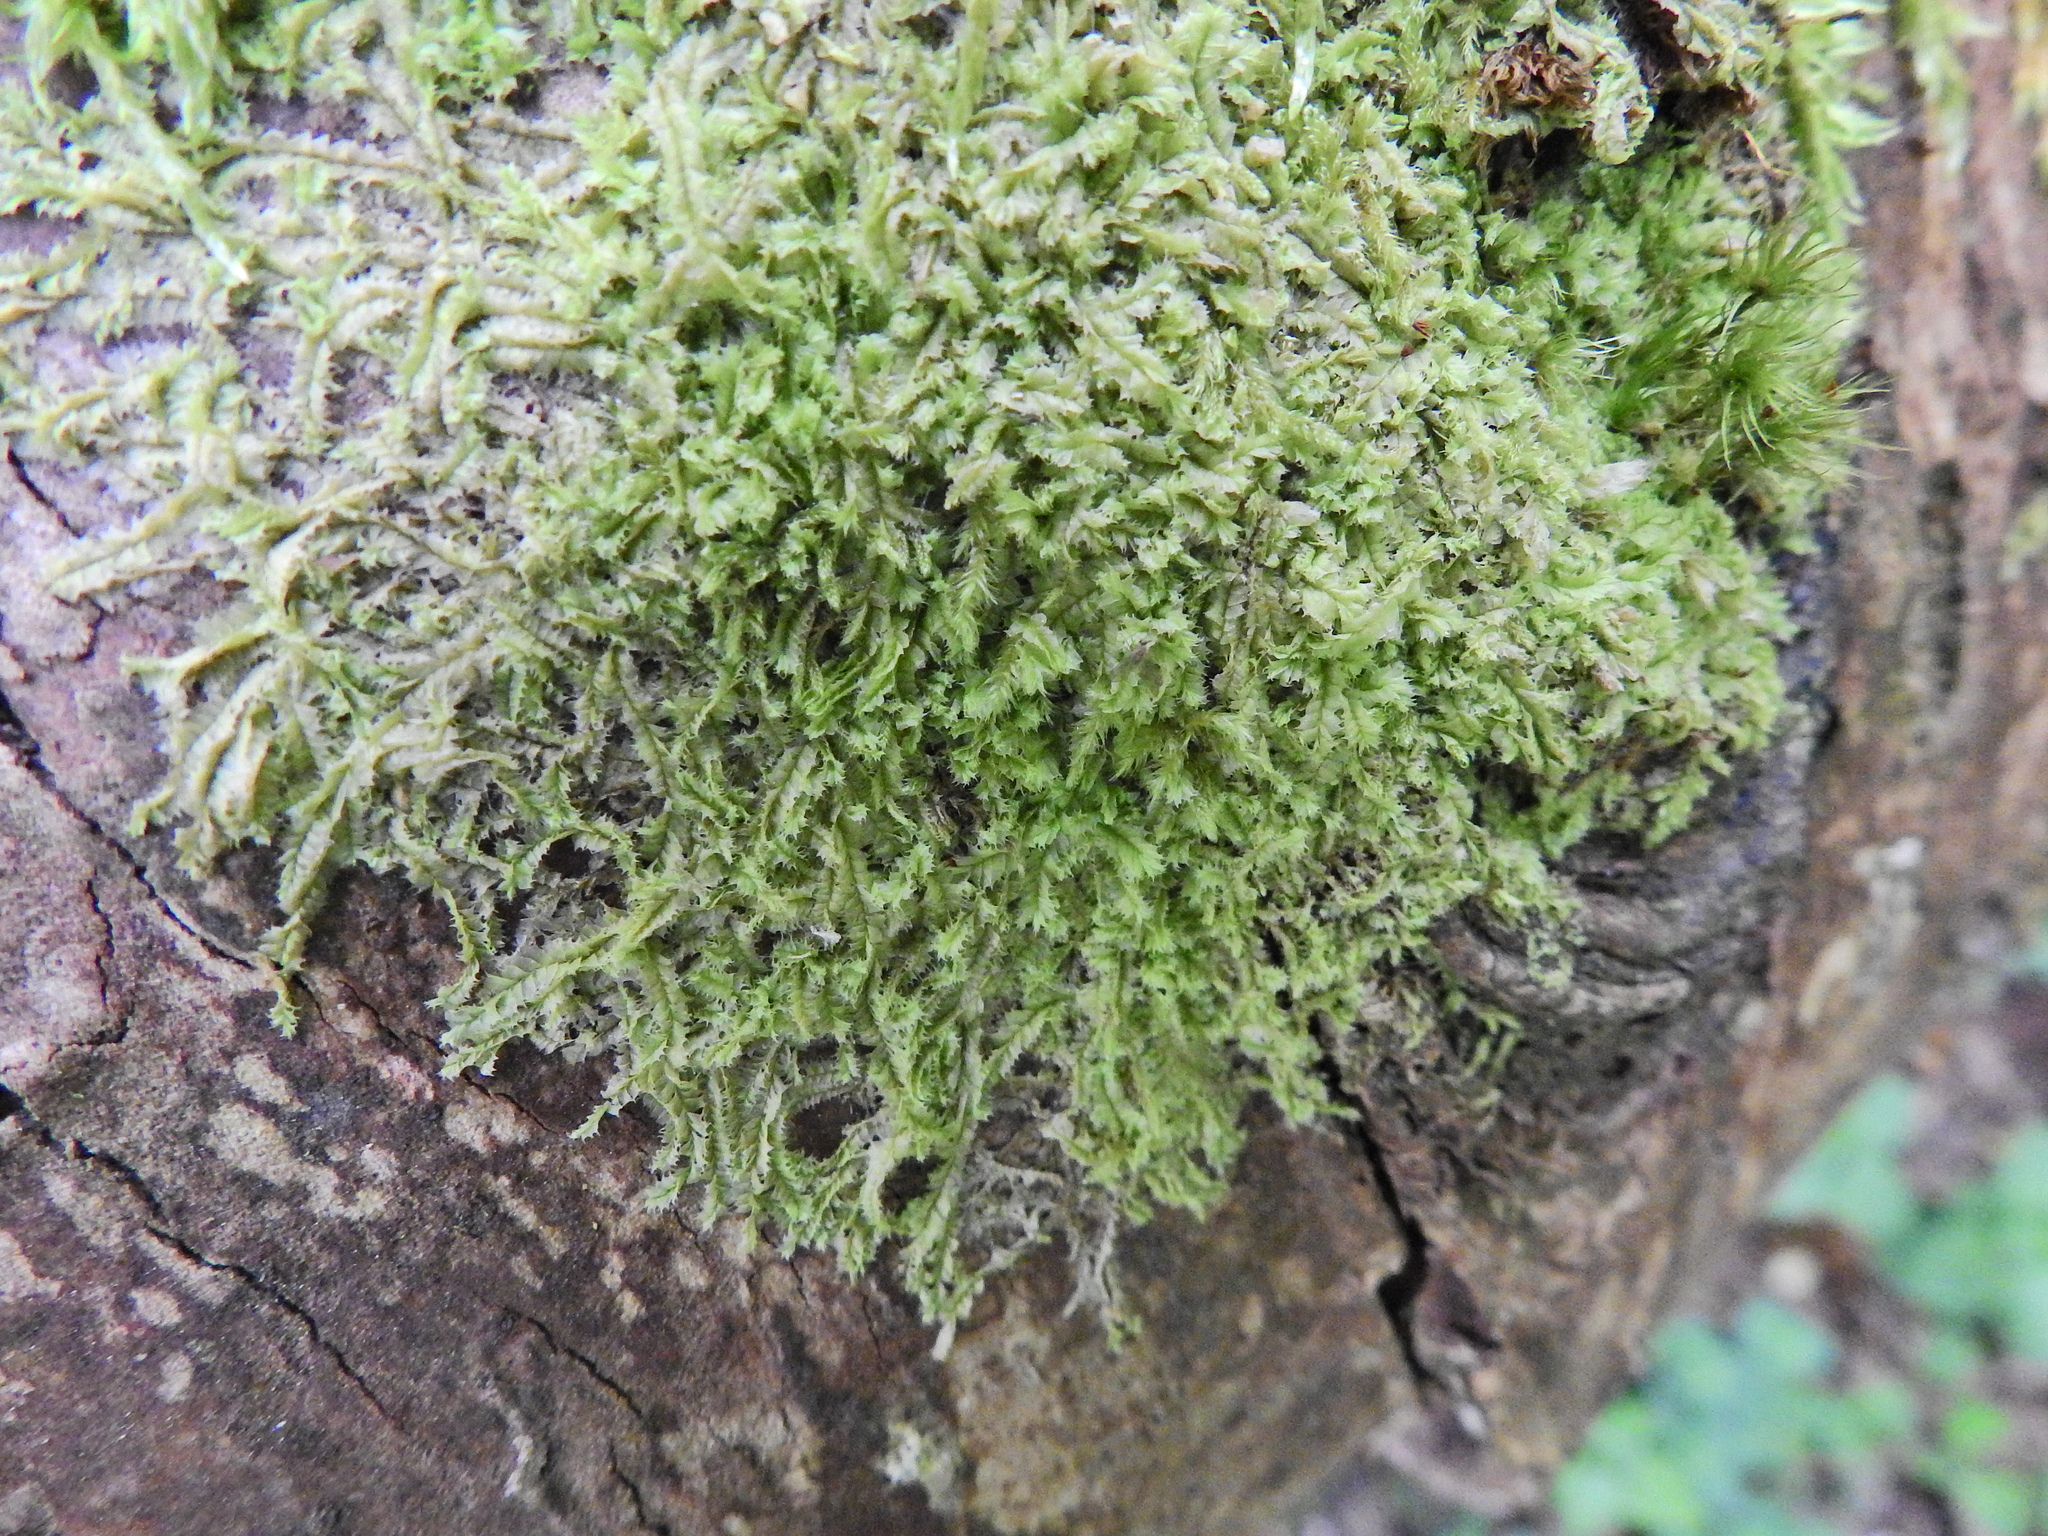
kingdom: Plantae
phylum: Marchantiophyta
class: Jungermanniopsida
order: Jungermanniales
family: Lophocoleaceae
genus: Lophocolea
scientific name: Lophocolea bidentata
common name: Bifid crestwort
